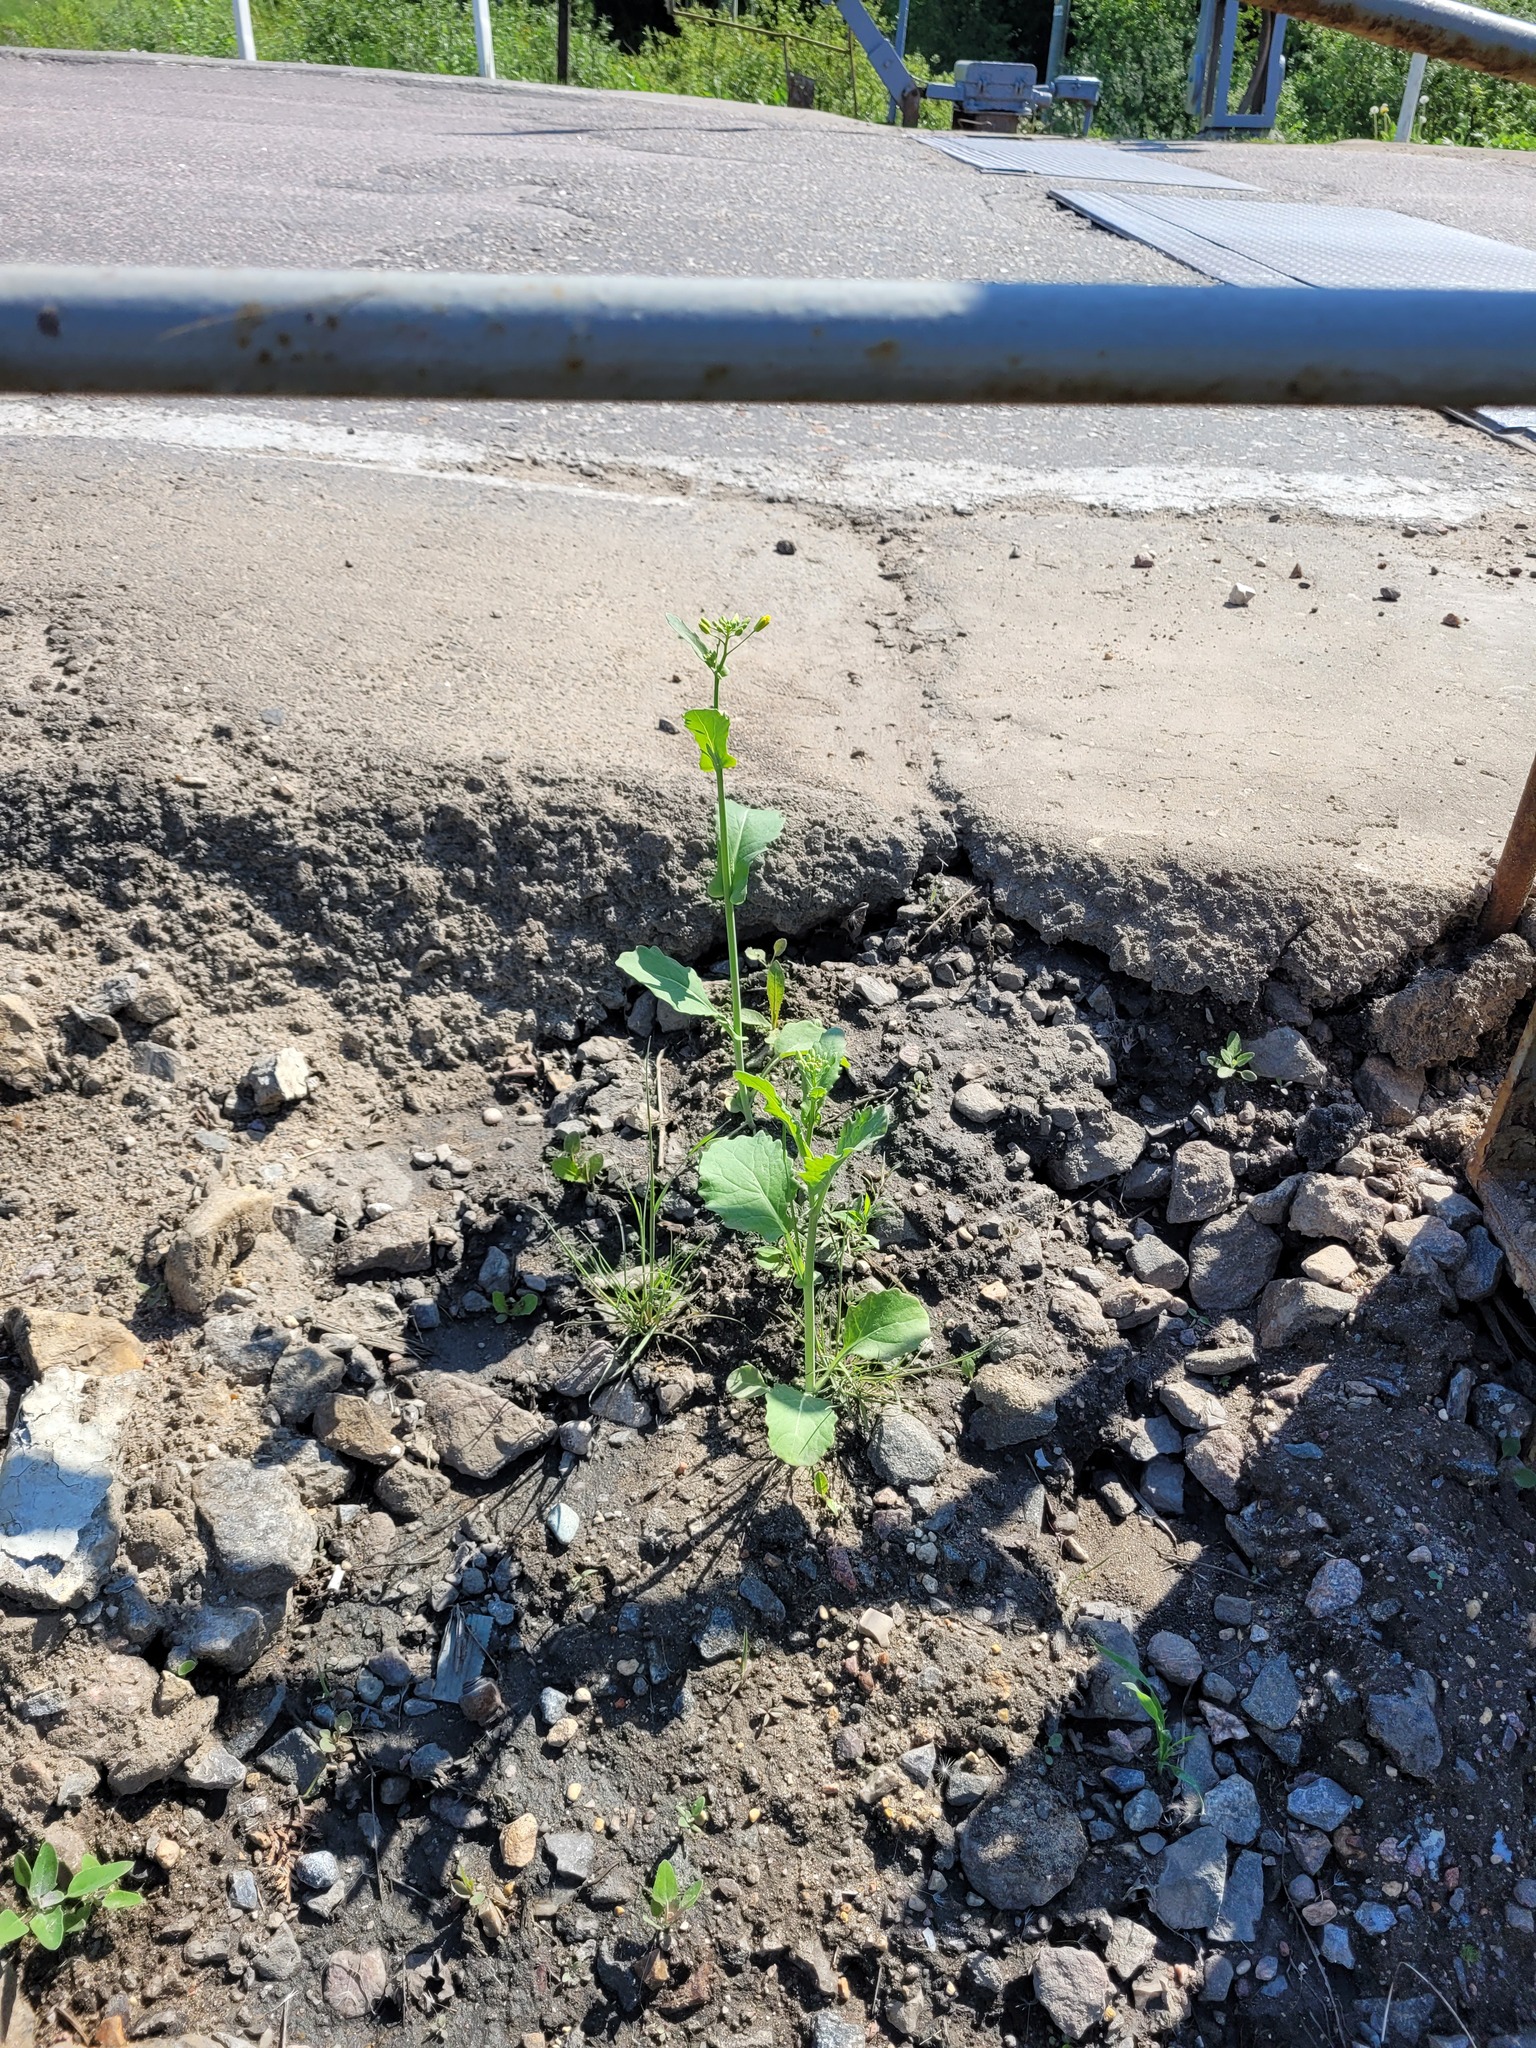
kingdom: Plantae
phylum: Tracheophyta
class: Magnoliopsida
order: Brassicales
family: Brassicaceae
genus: Brassica
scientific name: Brassica napus
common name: Rape
